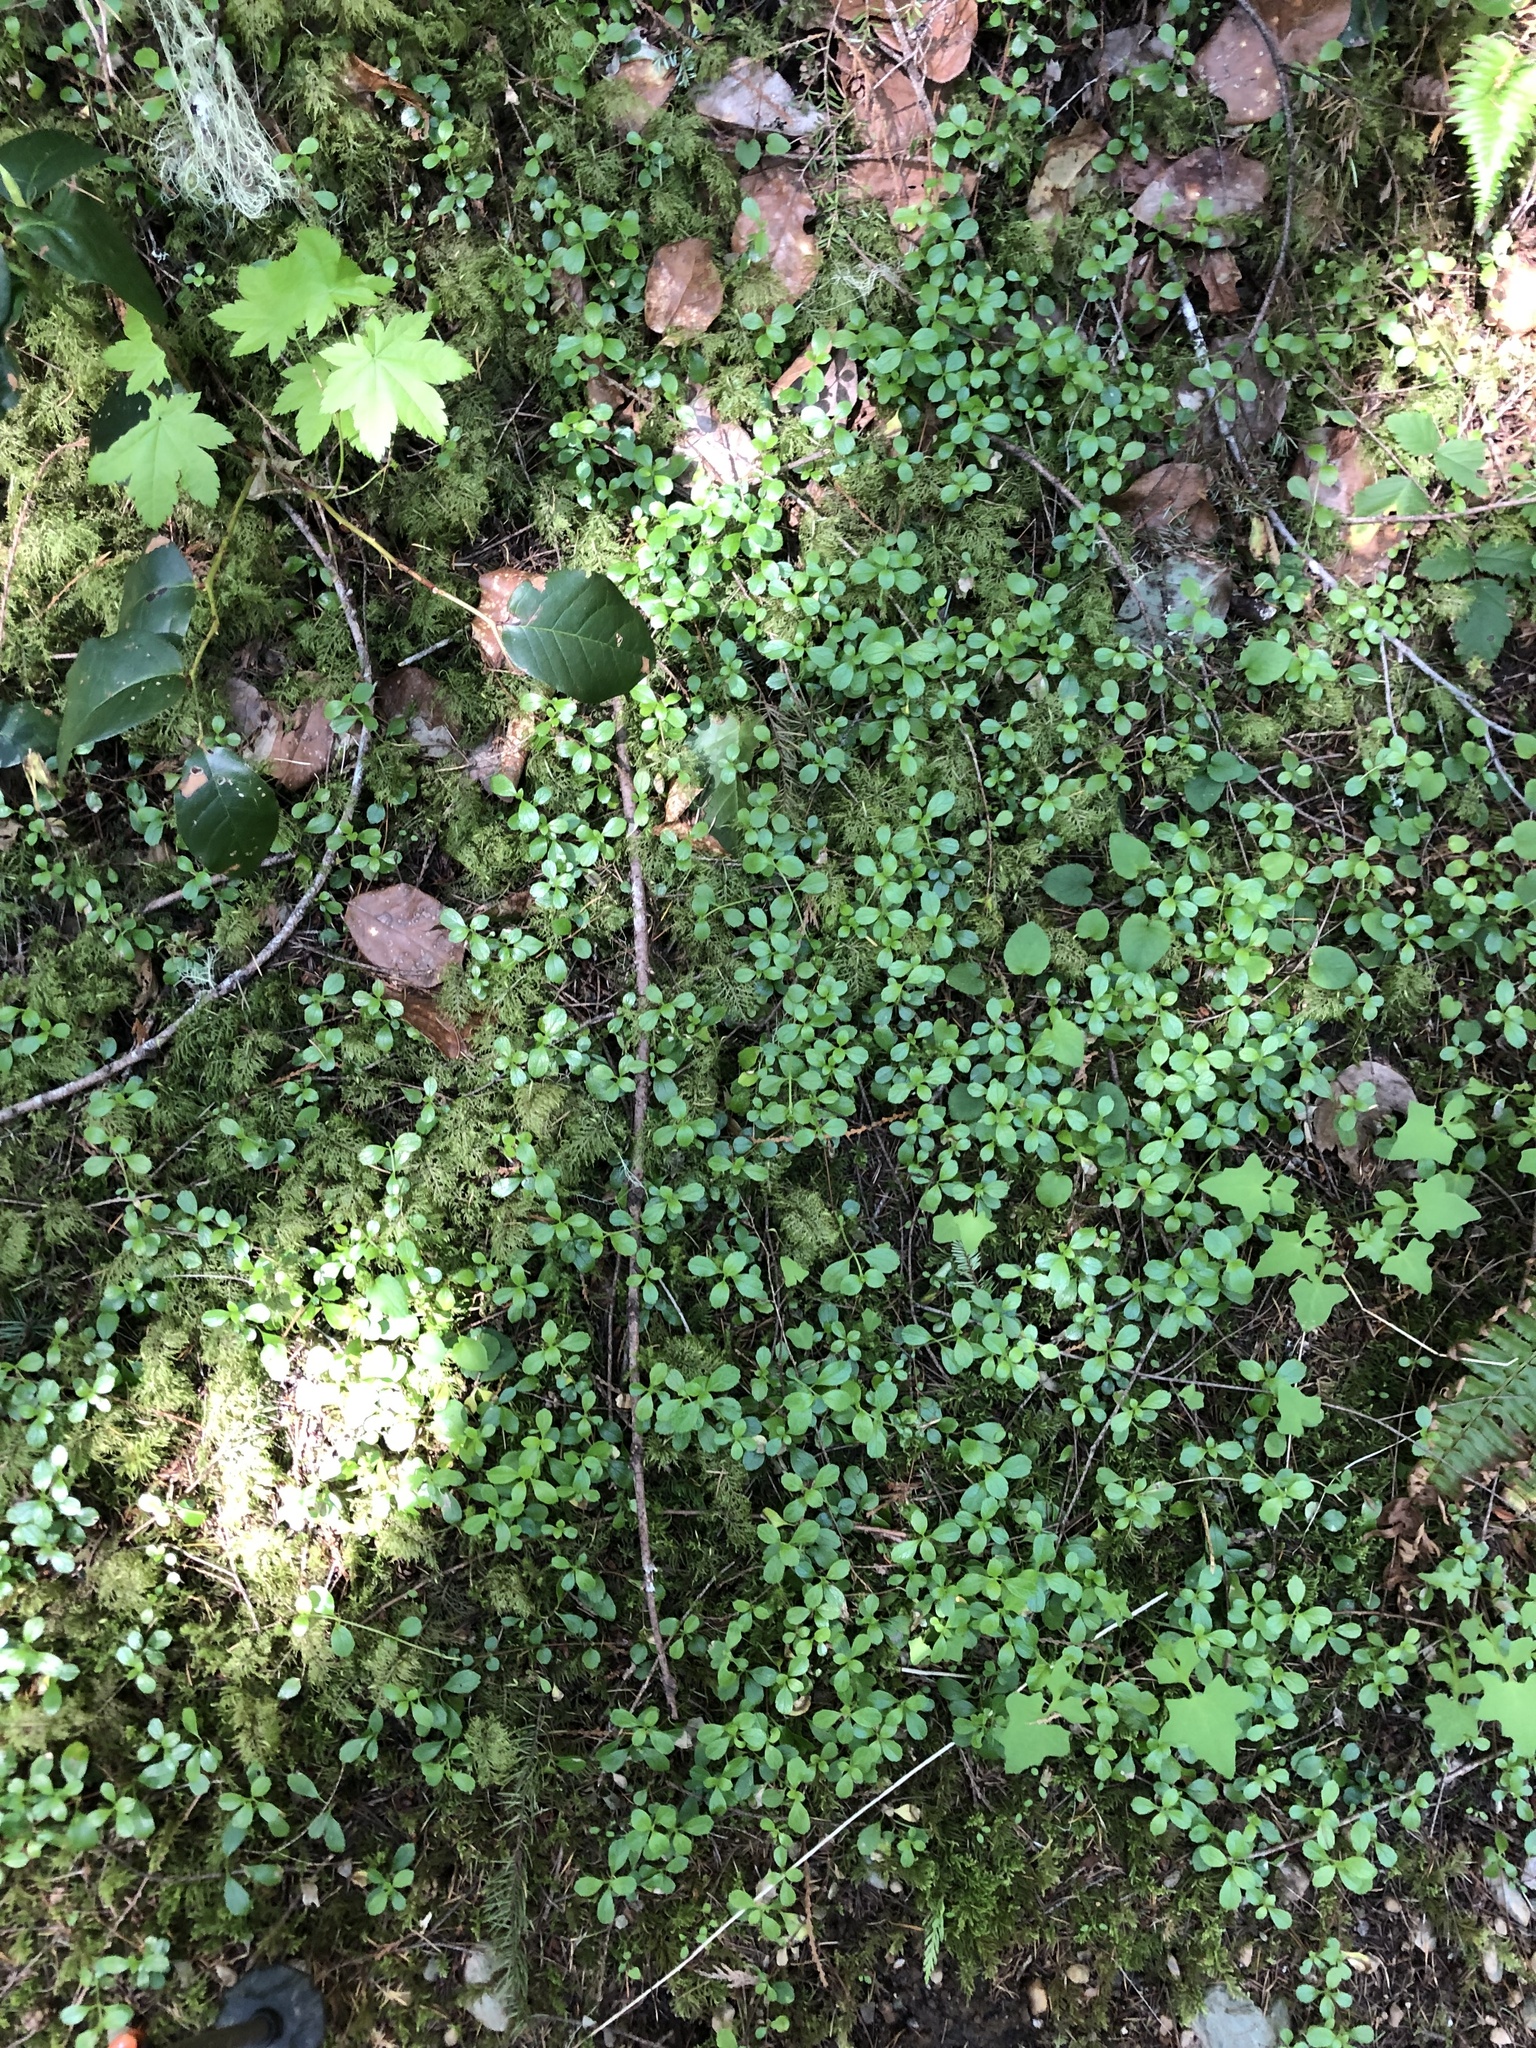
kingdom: Plantae
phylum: Tracheophyta
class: Magnoliopsida
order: Dipsacales
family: Caprifoliaceae
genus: Linnaea
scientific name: Linnaea borealis
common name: Twinflower
